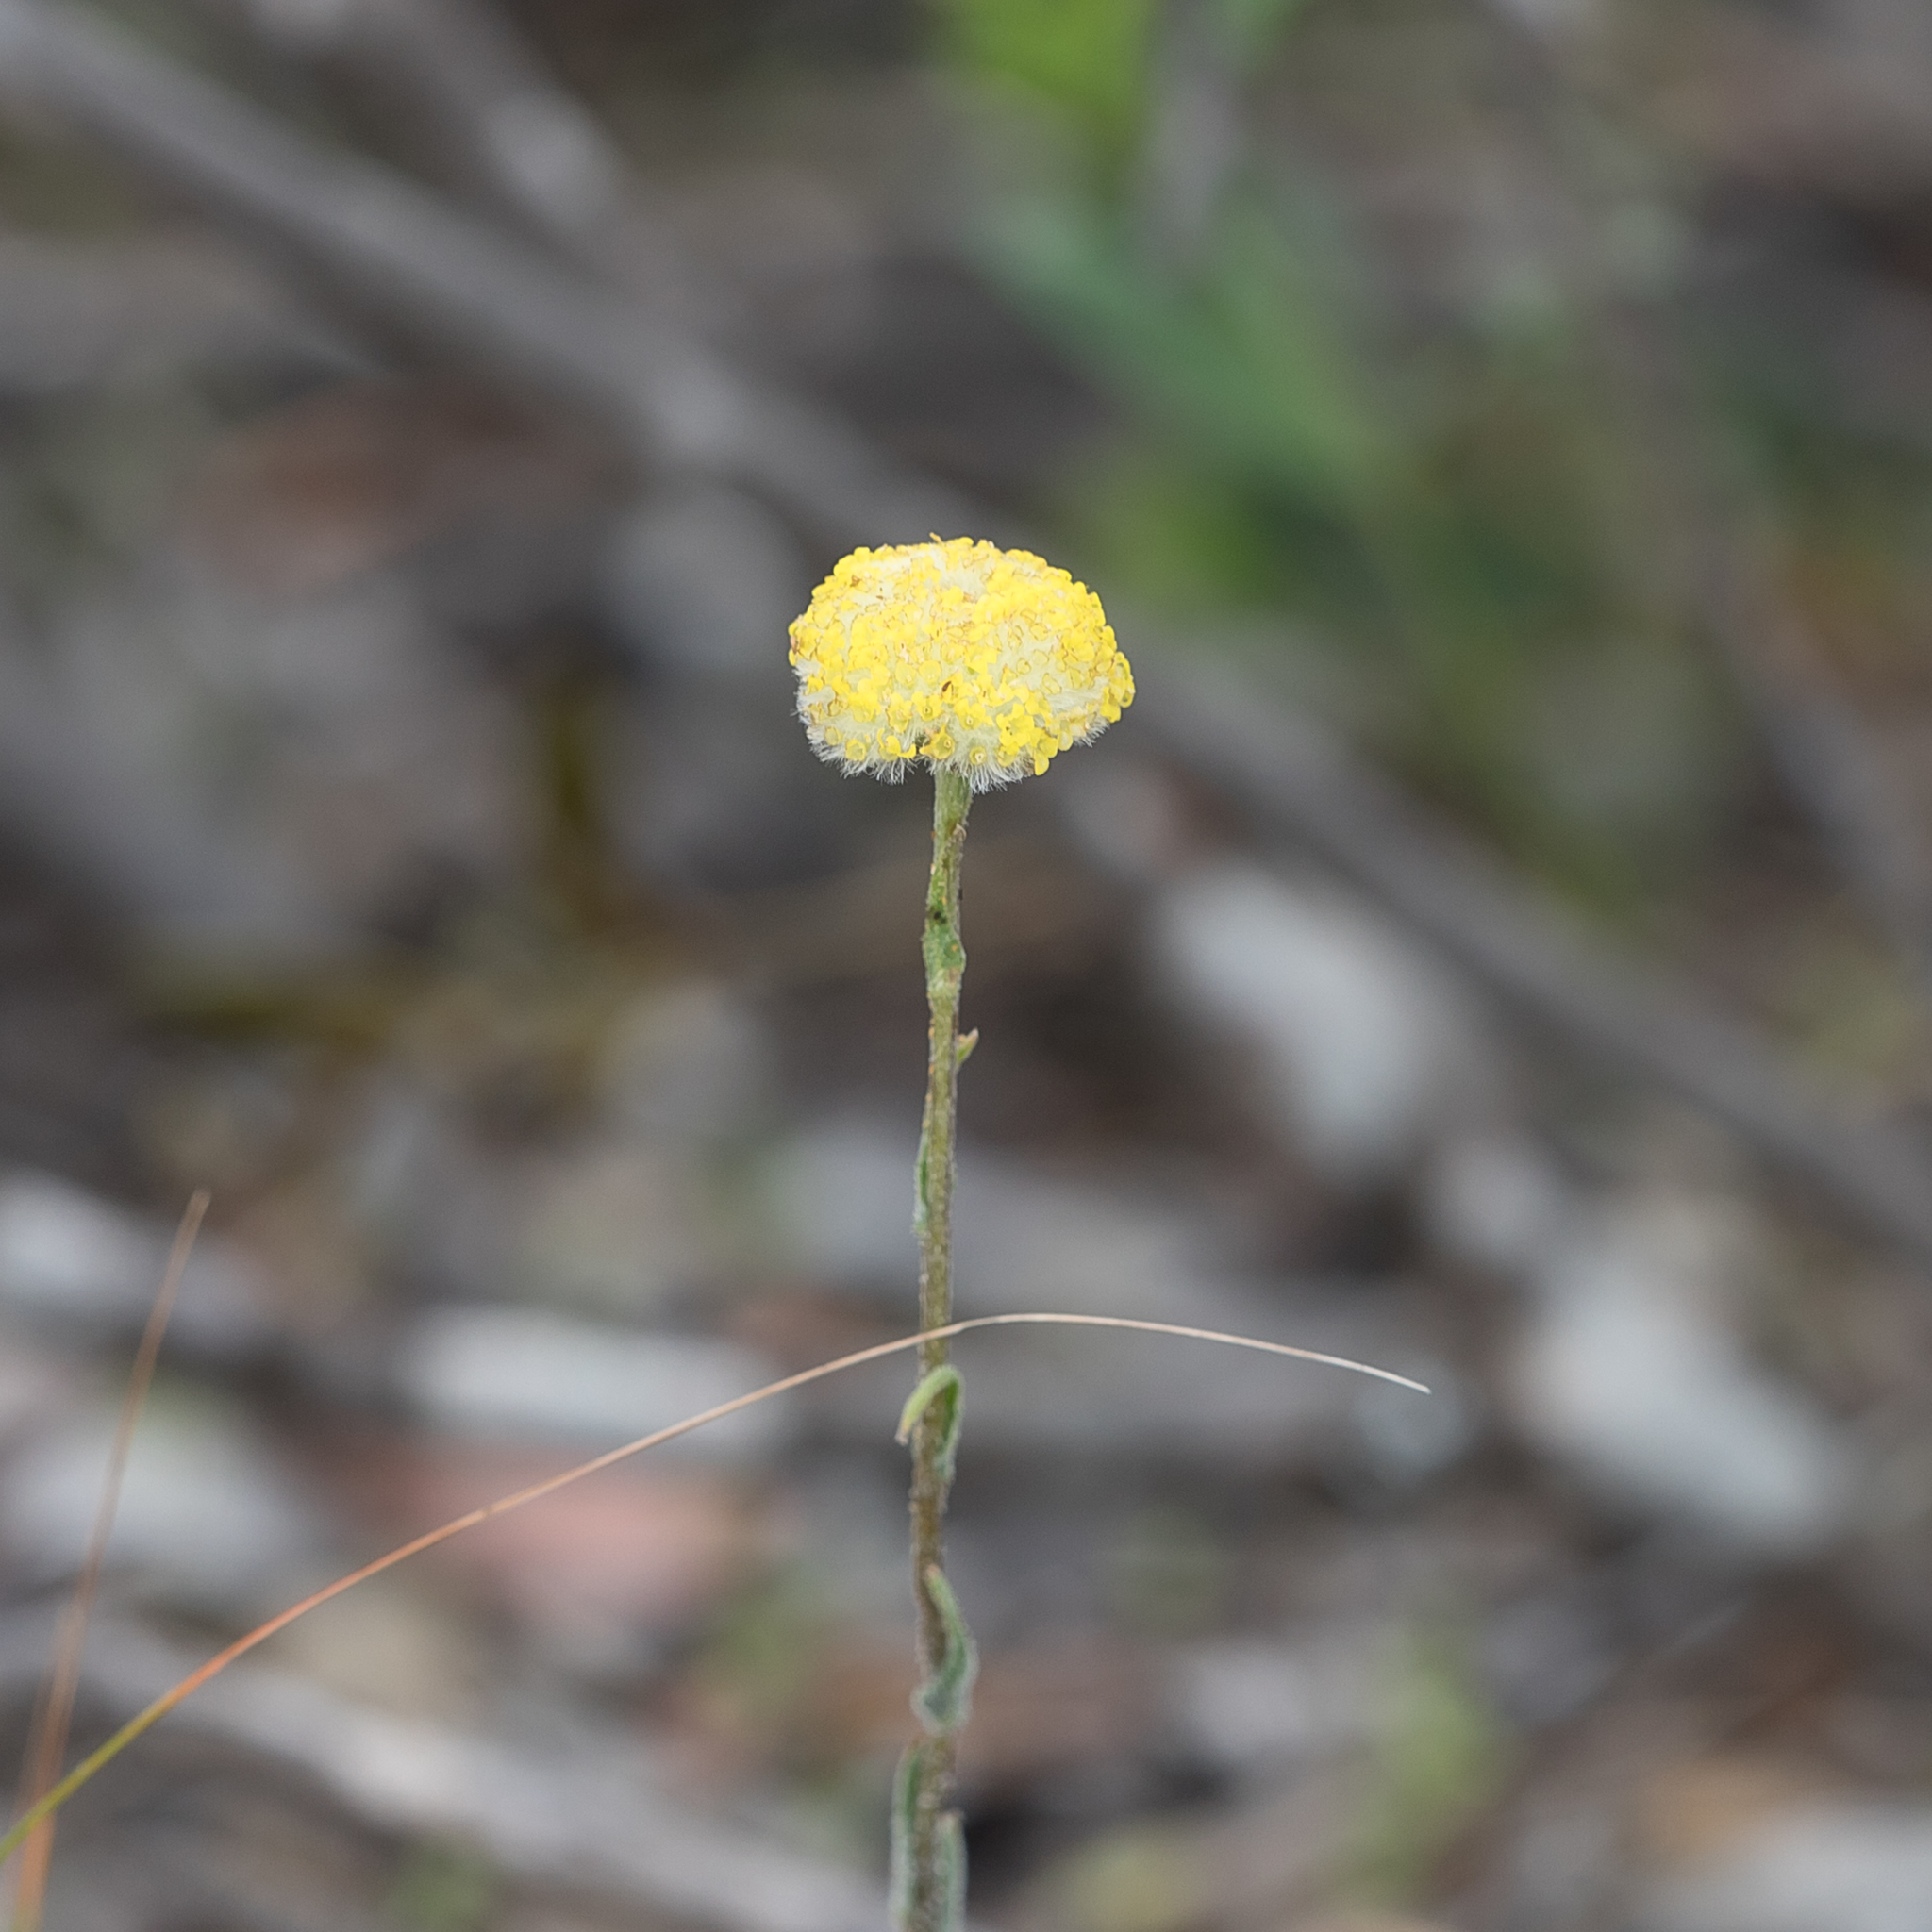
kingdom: Plantae
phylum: Tracheophyta
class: Magnoliopsida
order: Asterales
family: Asteraceae
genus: Craspedia
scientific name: Craspedia variabilis
